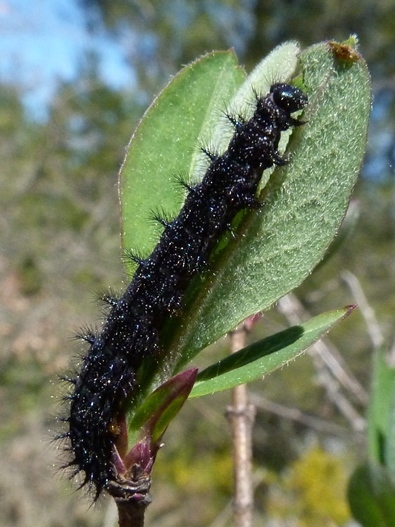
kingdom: Animalia
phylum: Arthropoda
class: Insecta
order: Lepidoptera
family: Nymphalidae
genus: Euphydryas
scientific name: Euphydryas aurinia
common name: Marsh fritillary
